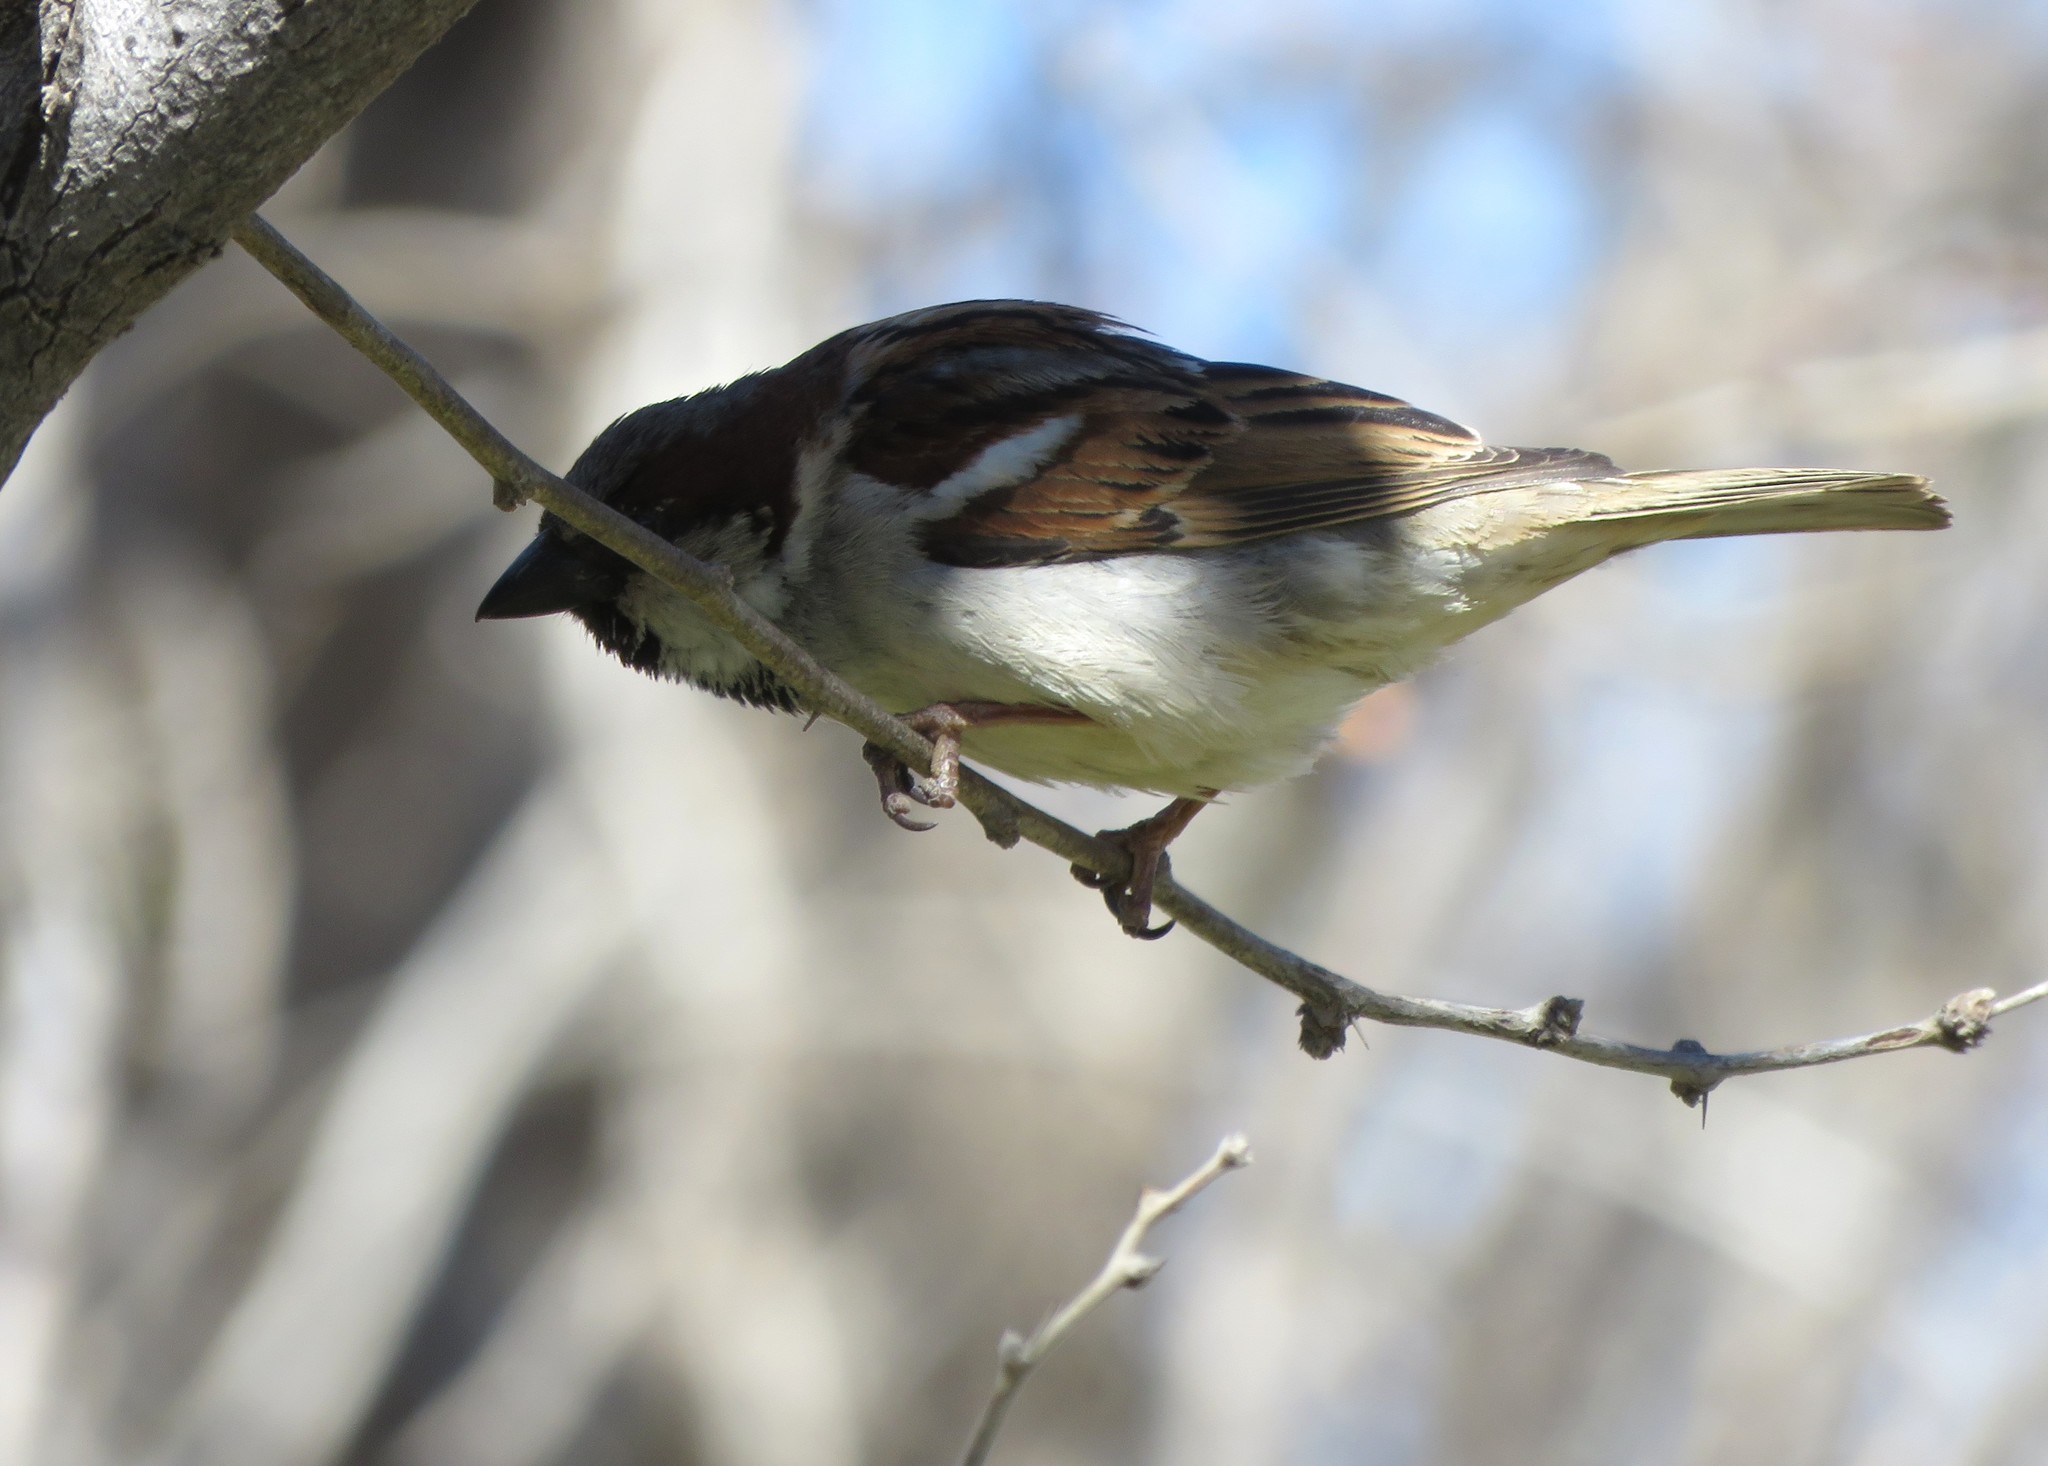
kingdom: Animalia
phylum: Chordata
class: Aves
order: Passeriformes
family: Passeridae
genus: Passer
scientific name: Passer domesticus
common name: House sparrow
